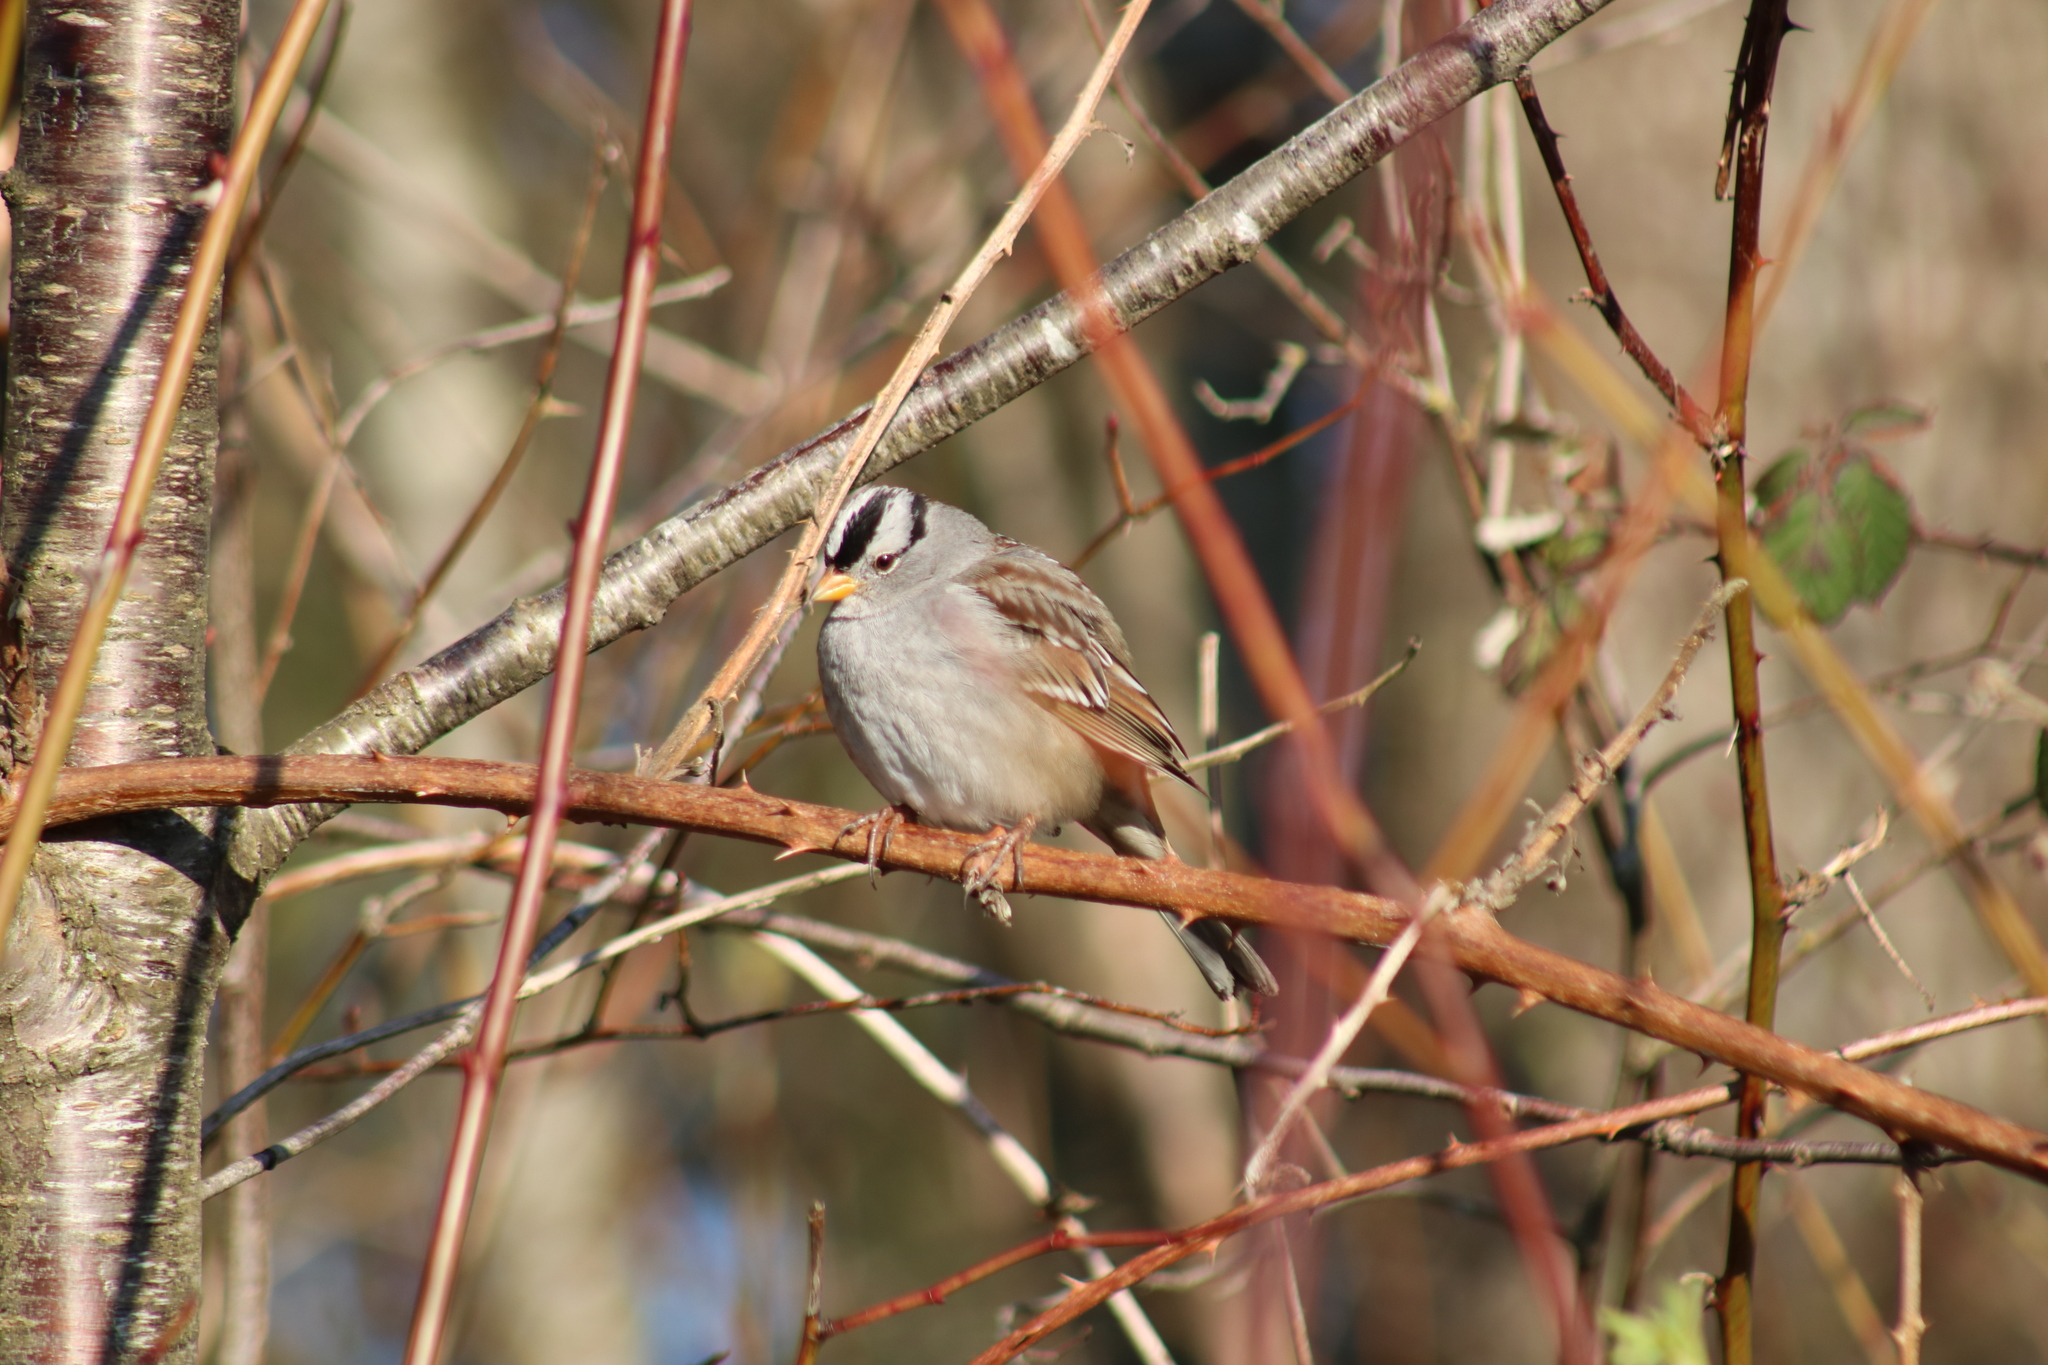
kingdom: Animalia
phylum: Chordata
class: Aves
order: Passeriformes
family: Passerellidae
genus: Zonotrichia
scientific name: Zonotrichia leucophrys
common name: White-crowned sparrow
